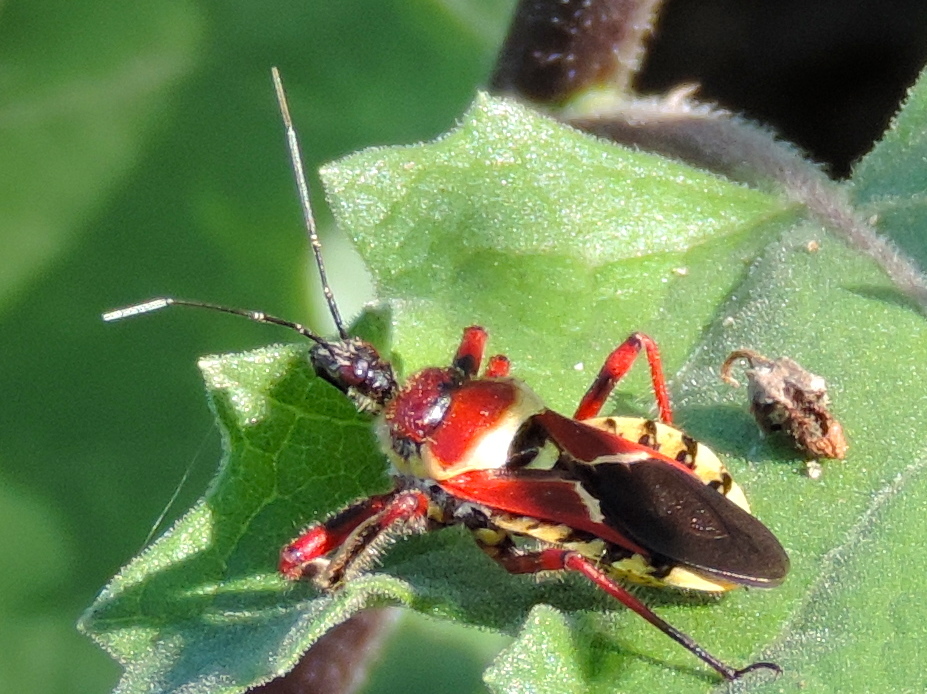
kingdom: Animalia
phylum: Arthropoda
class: Insecta
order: Hemiptera
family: Reduviidae
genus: Apiomerus
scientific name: Apiomerus flaviventris
